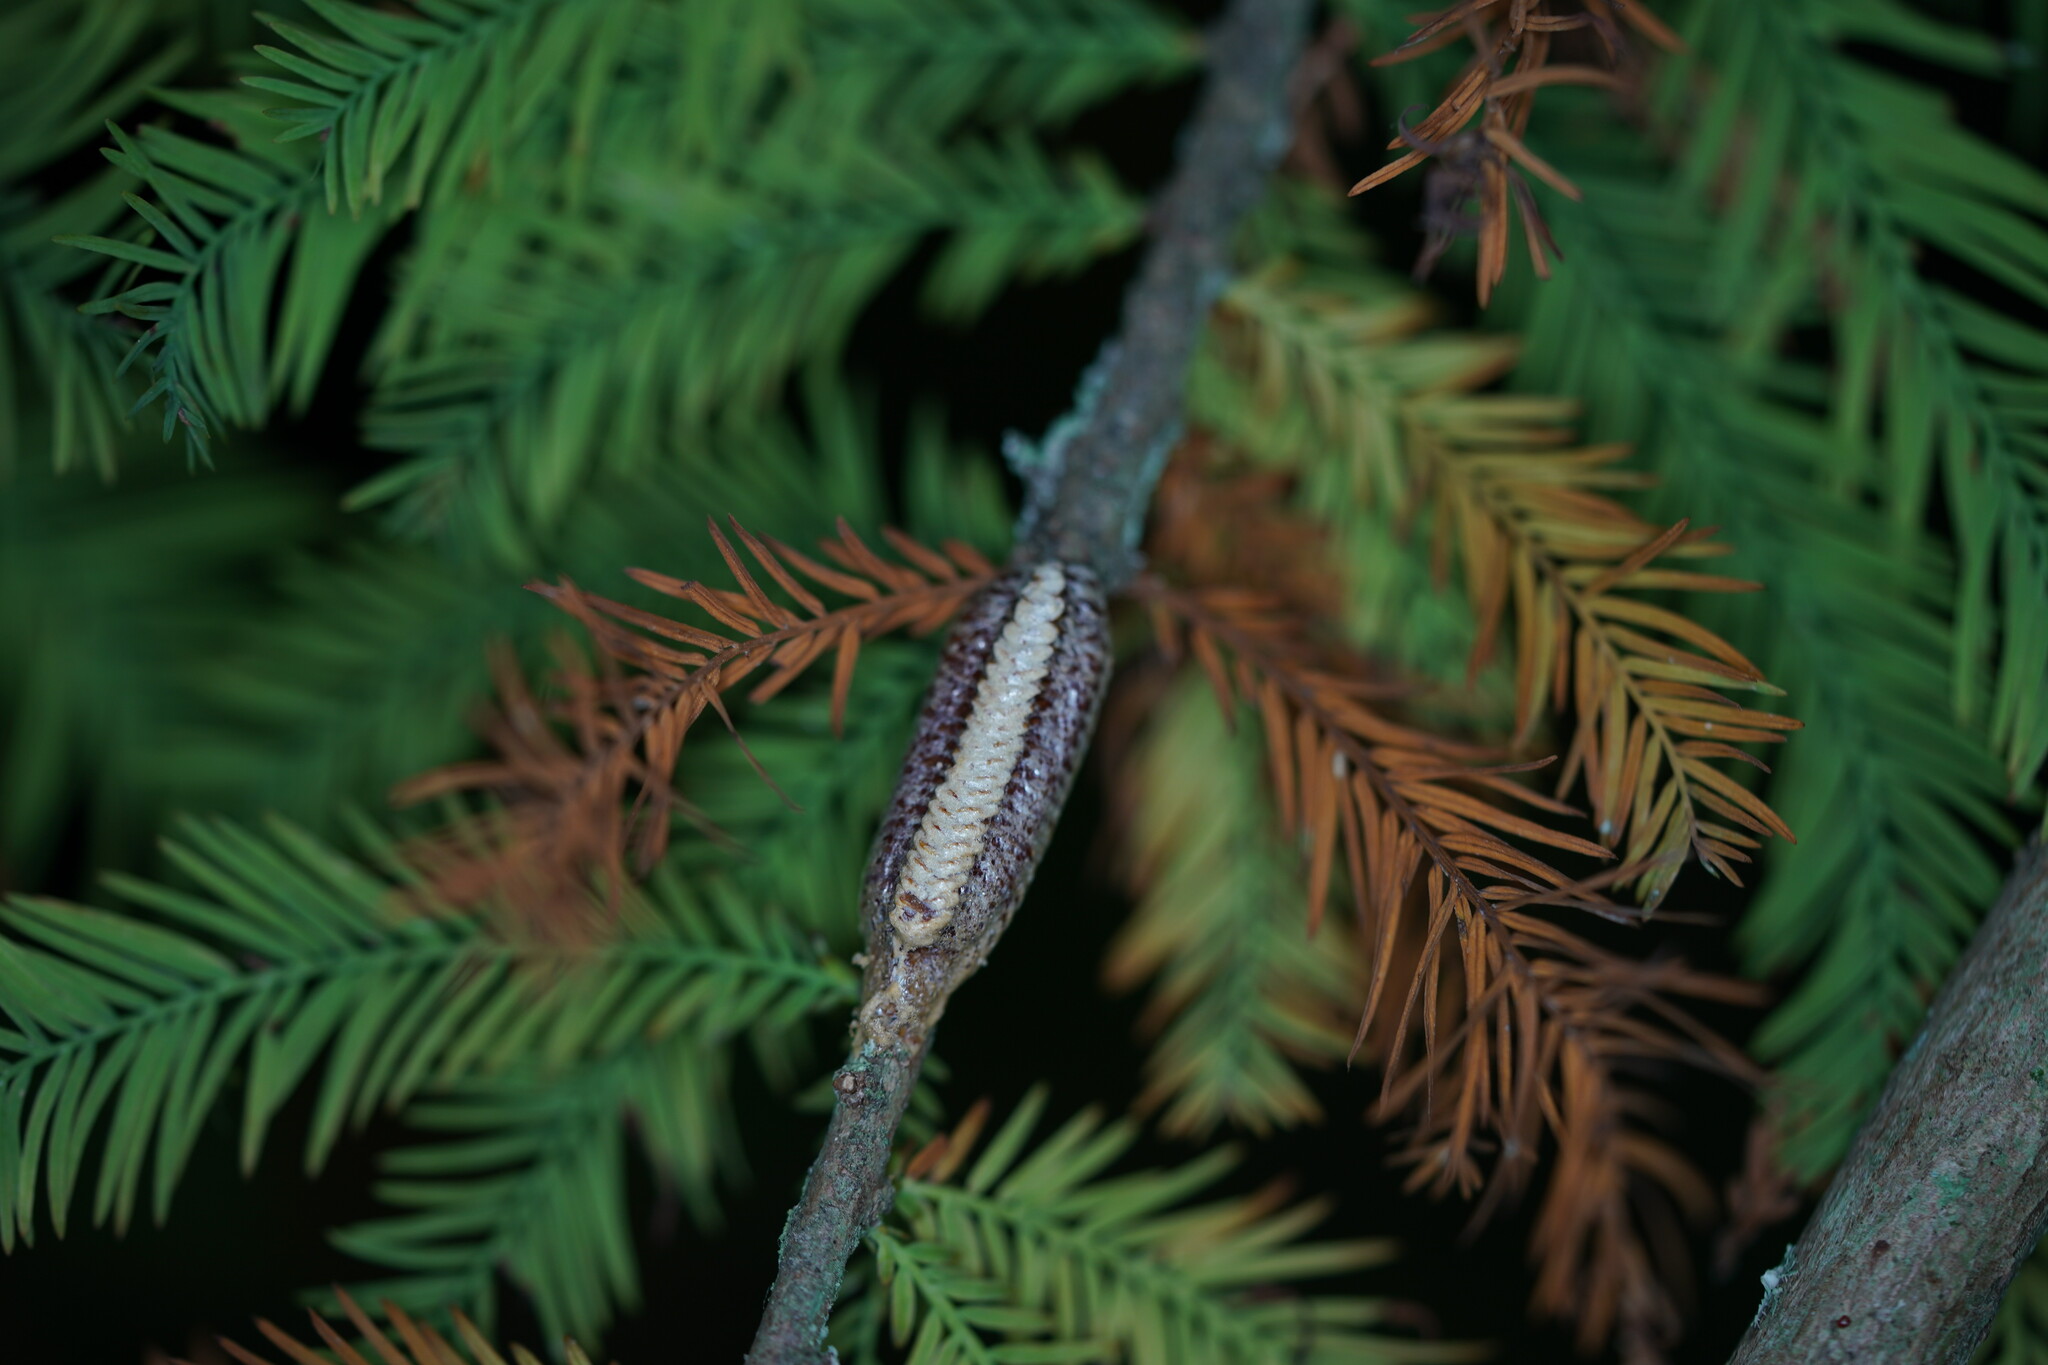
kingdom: Animalia
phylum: Arthropoda
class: Insecta
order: Mantodea
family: Mantidae
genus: Stagmomantis
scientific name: Stagmomantis carolina
